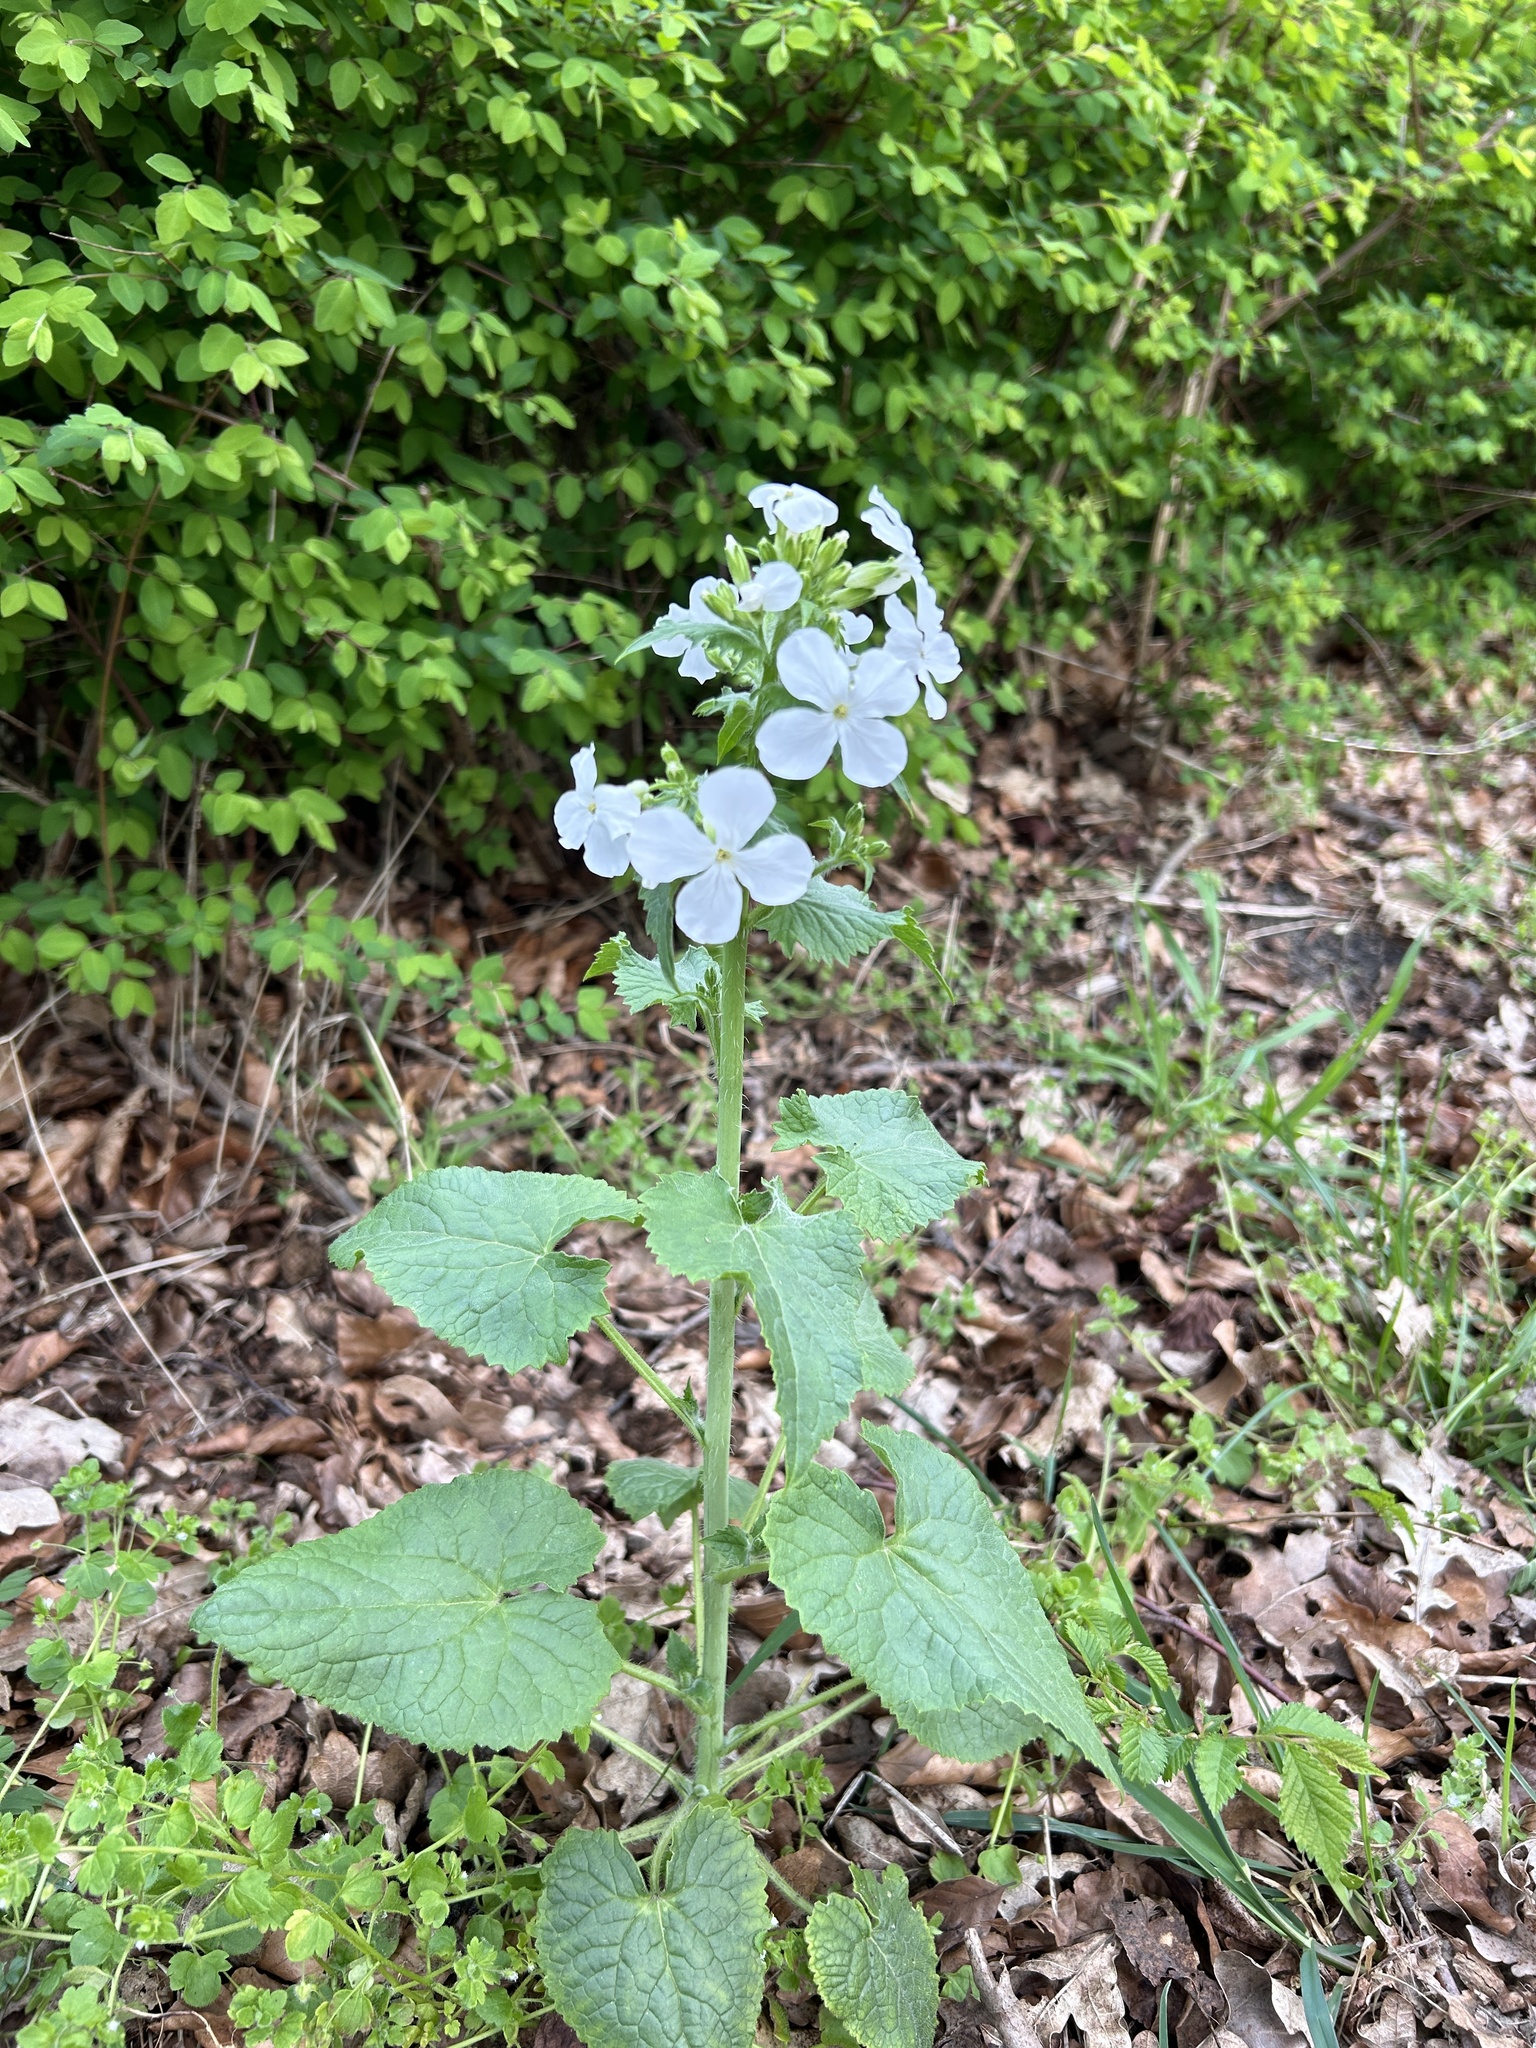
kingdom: Plantae
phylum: Tracheophyta
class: Magnoliopsida
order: Brassicales
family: Brassicaceae
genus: Lunaria
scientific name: Lunaria annua
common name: Honesty
